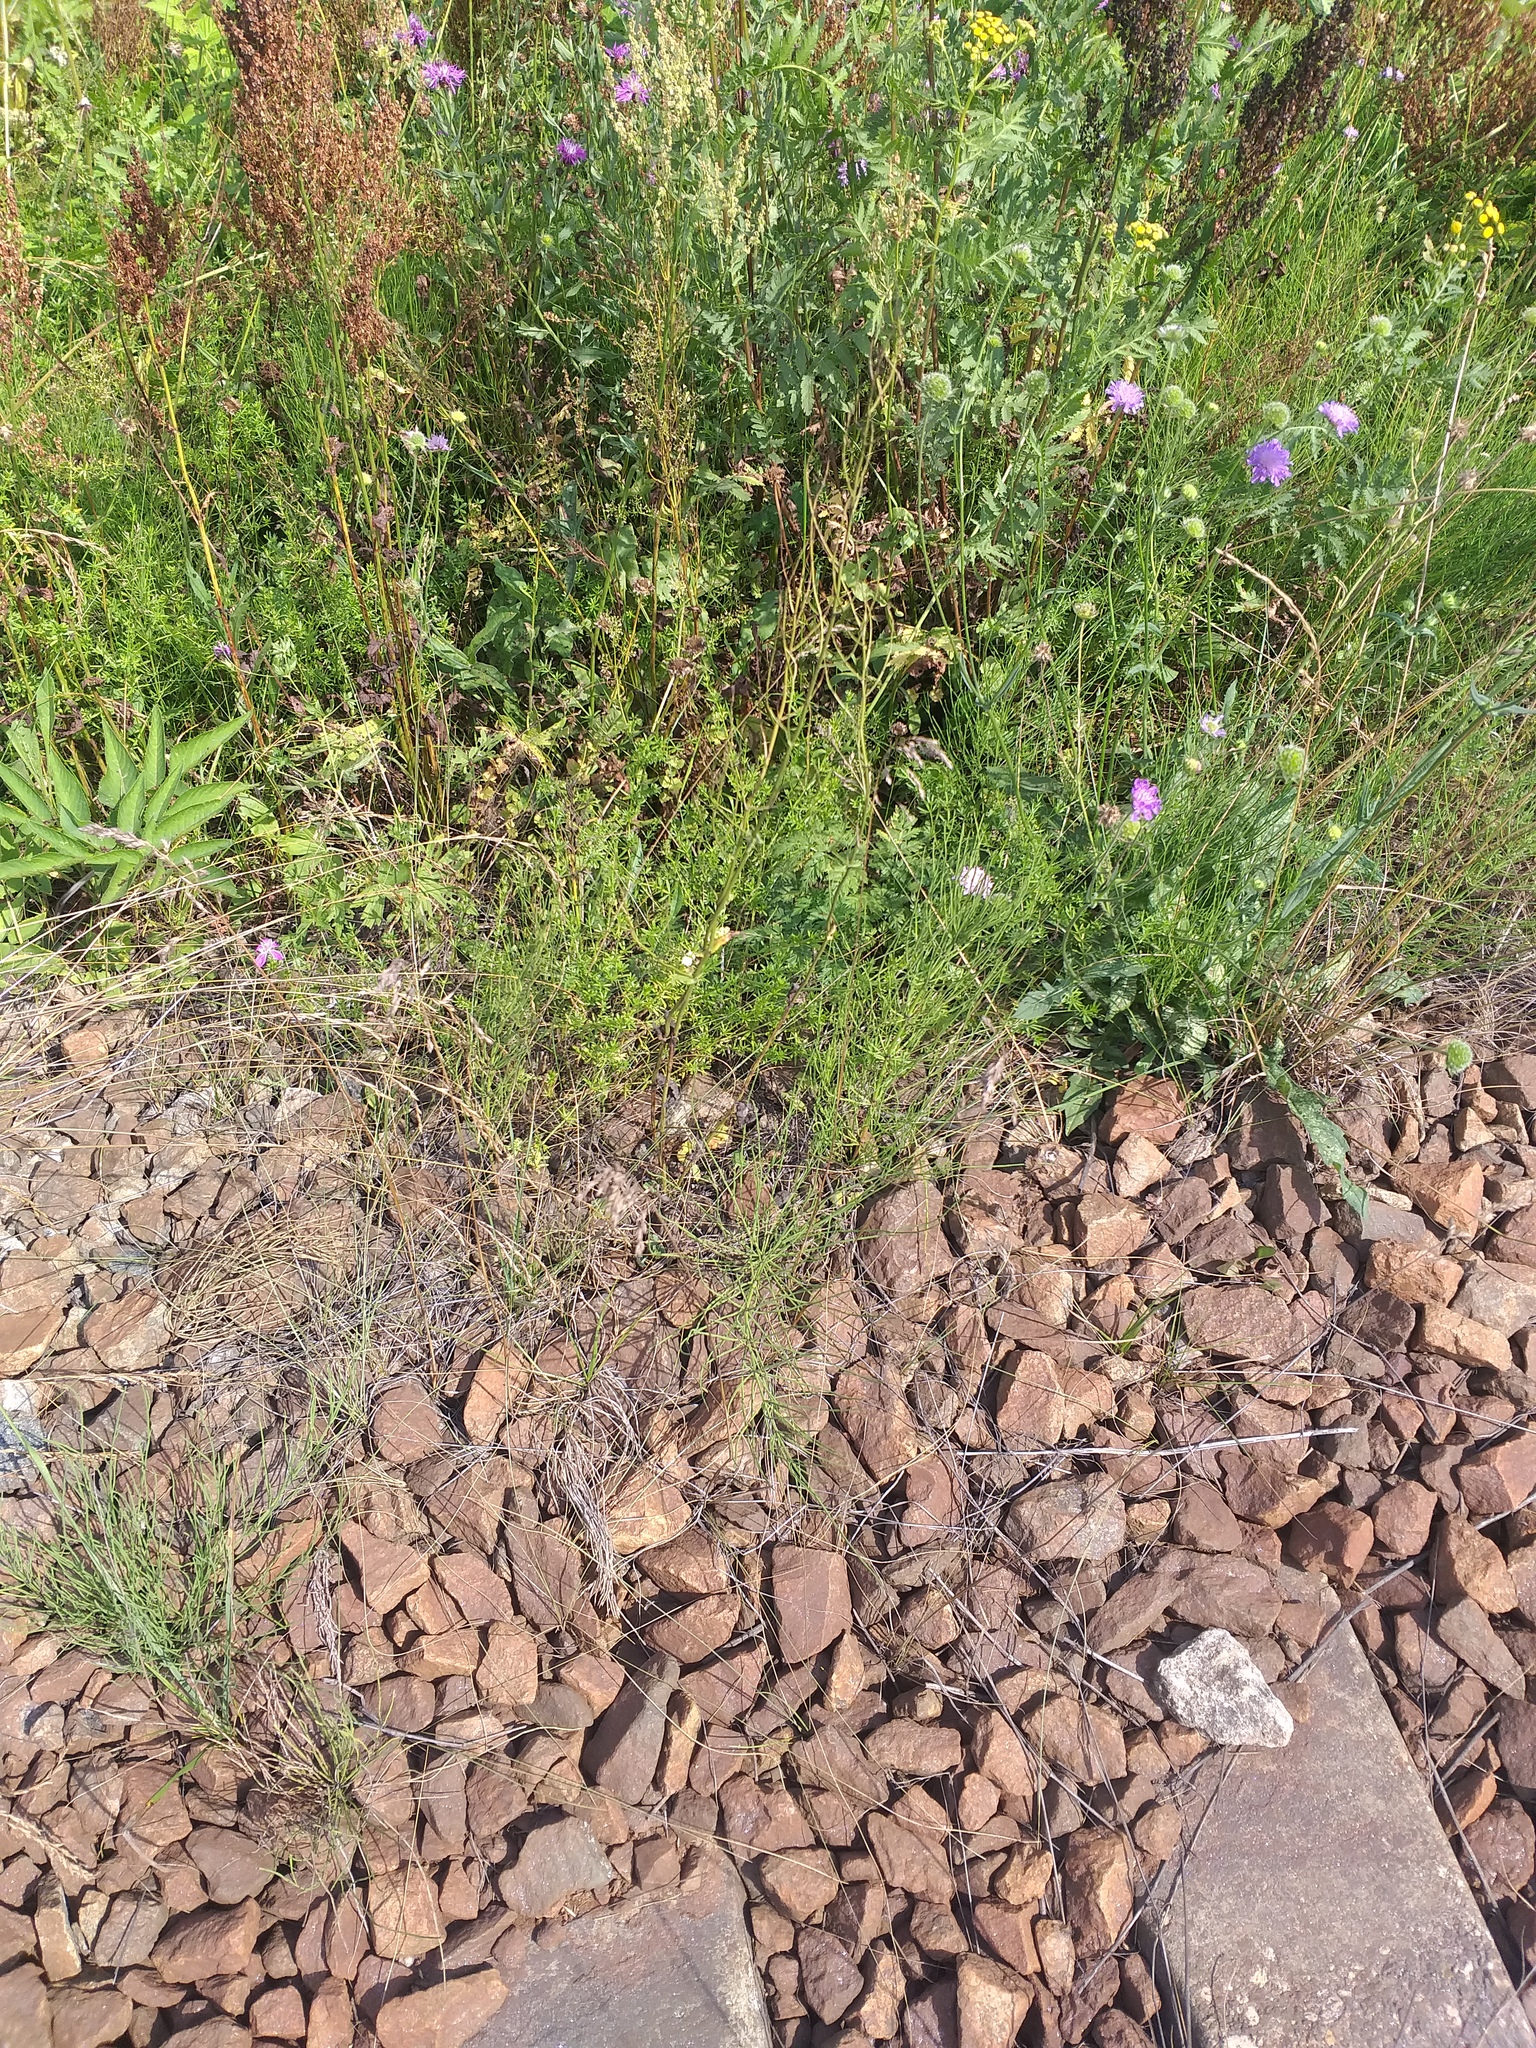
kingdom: Plantae
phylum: Tracheophyta
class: Polypodiopsida
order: Equisetales
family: Equisetaceae
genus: Equisetum
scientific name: Equisetum arvense
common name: Field horsetail
